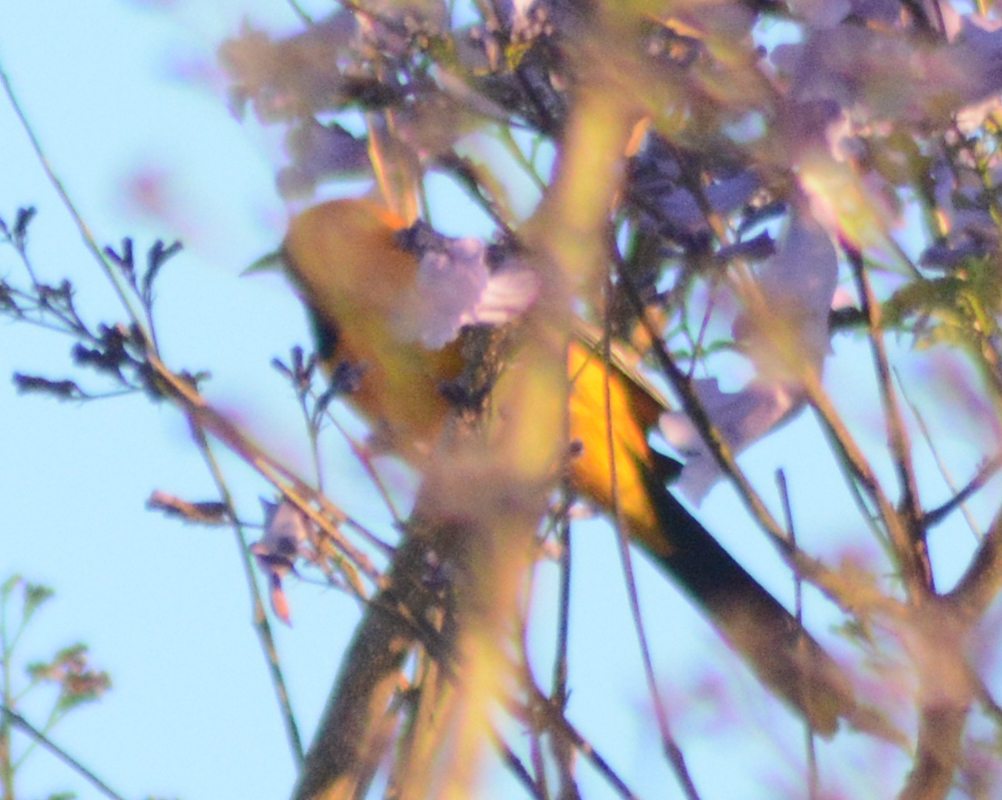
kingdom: Animalia
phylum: Chordata
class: Aves
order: Passeriformes
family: Icteridae
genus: Icterus
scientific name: Icterus cucullatus
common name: Hooded oriole
